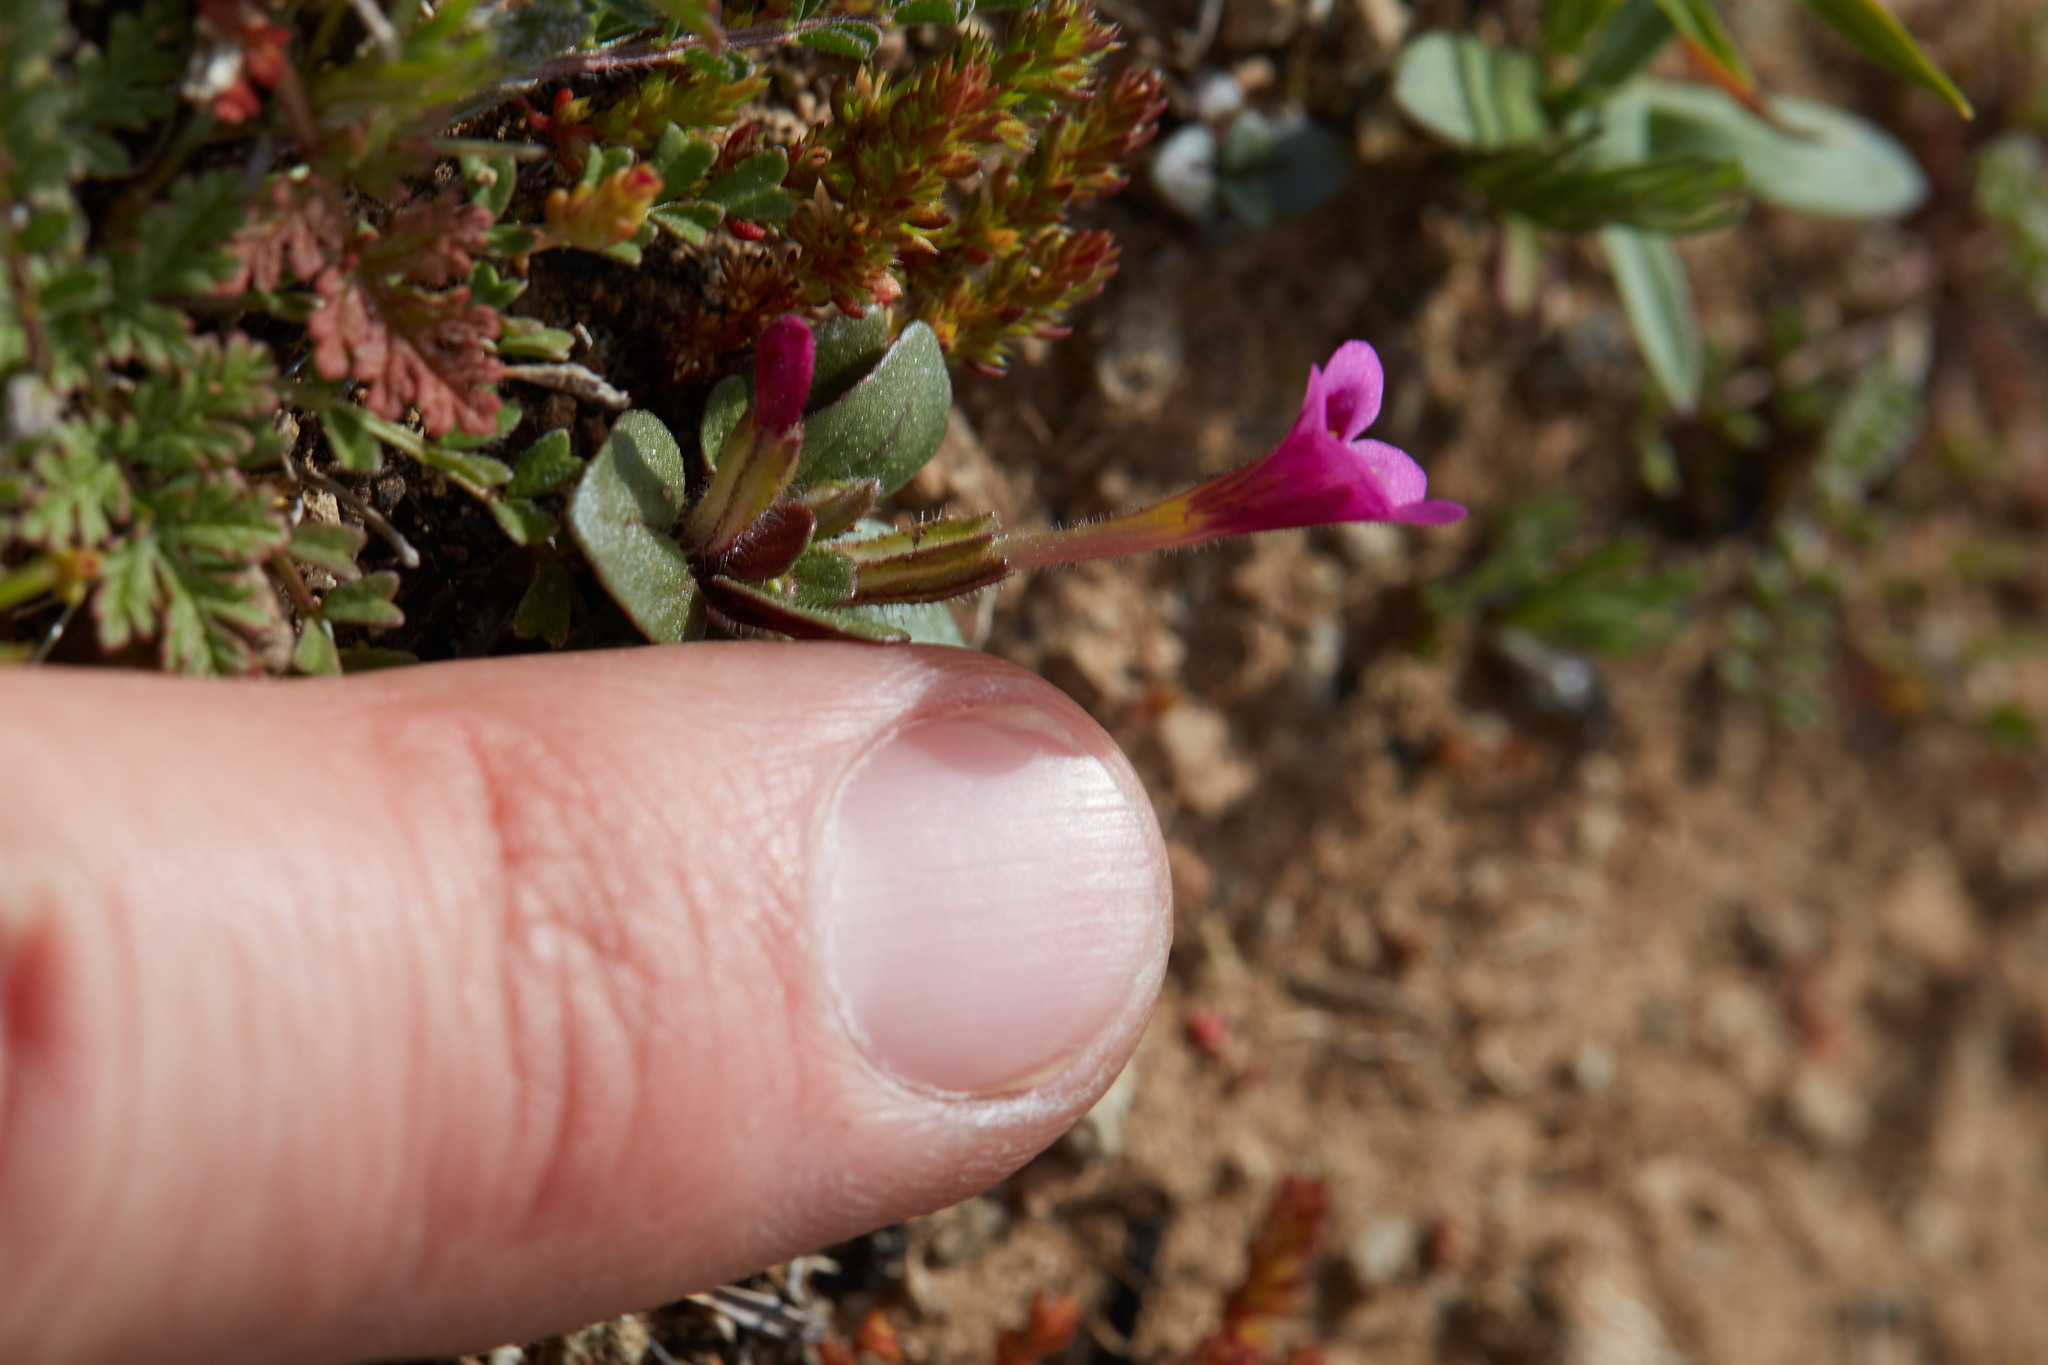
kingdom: Plantae
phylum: Tracheophyta
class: Magnoliopsida
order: Lamiales
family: Phrymaceae
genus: Diplacus
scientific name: Diplacus congdonii
